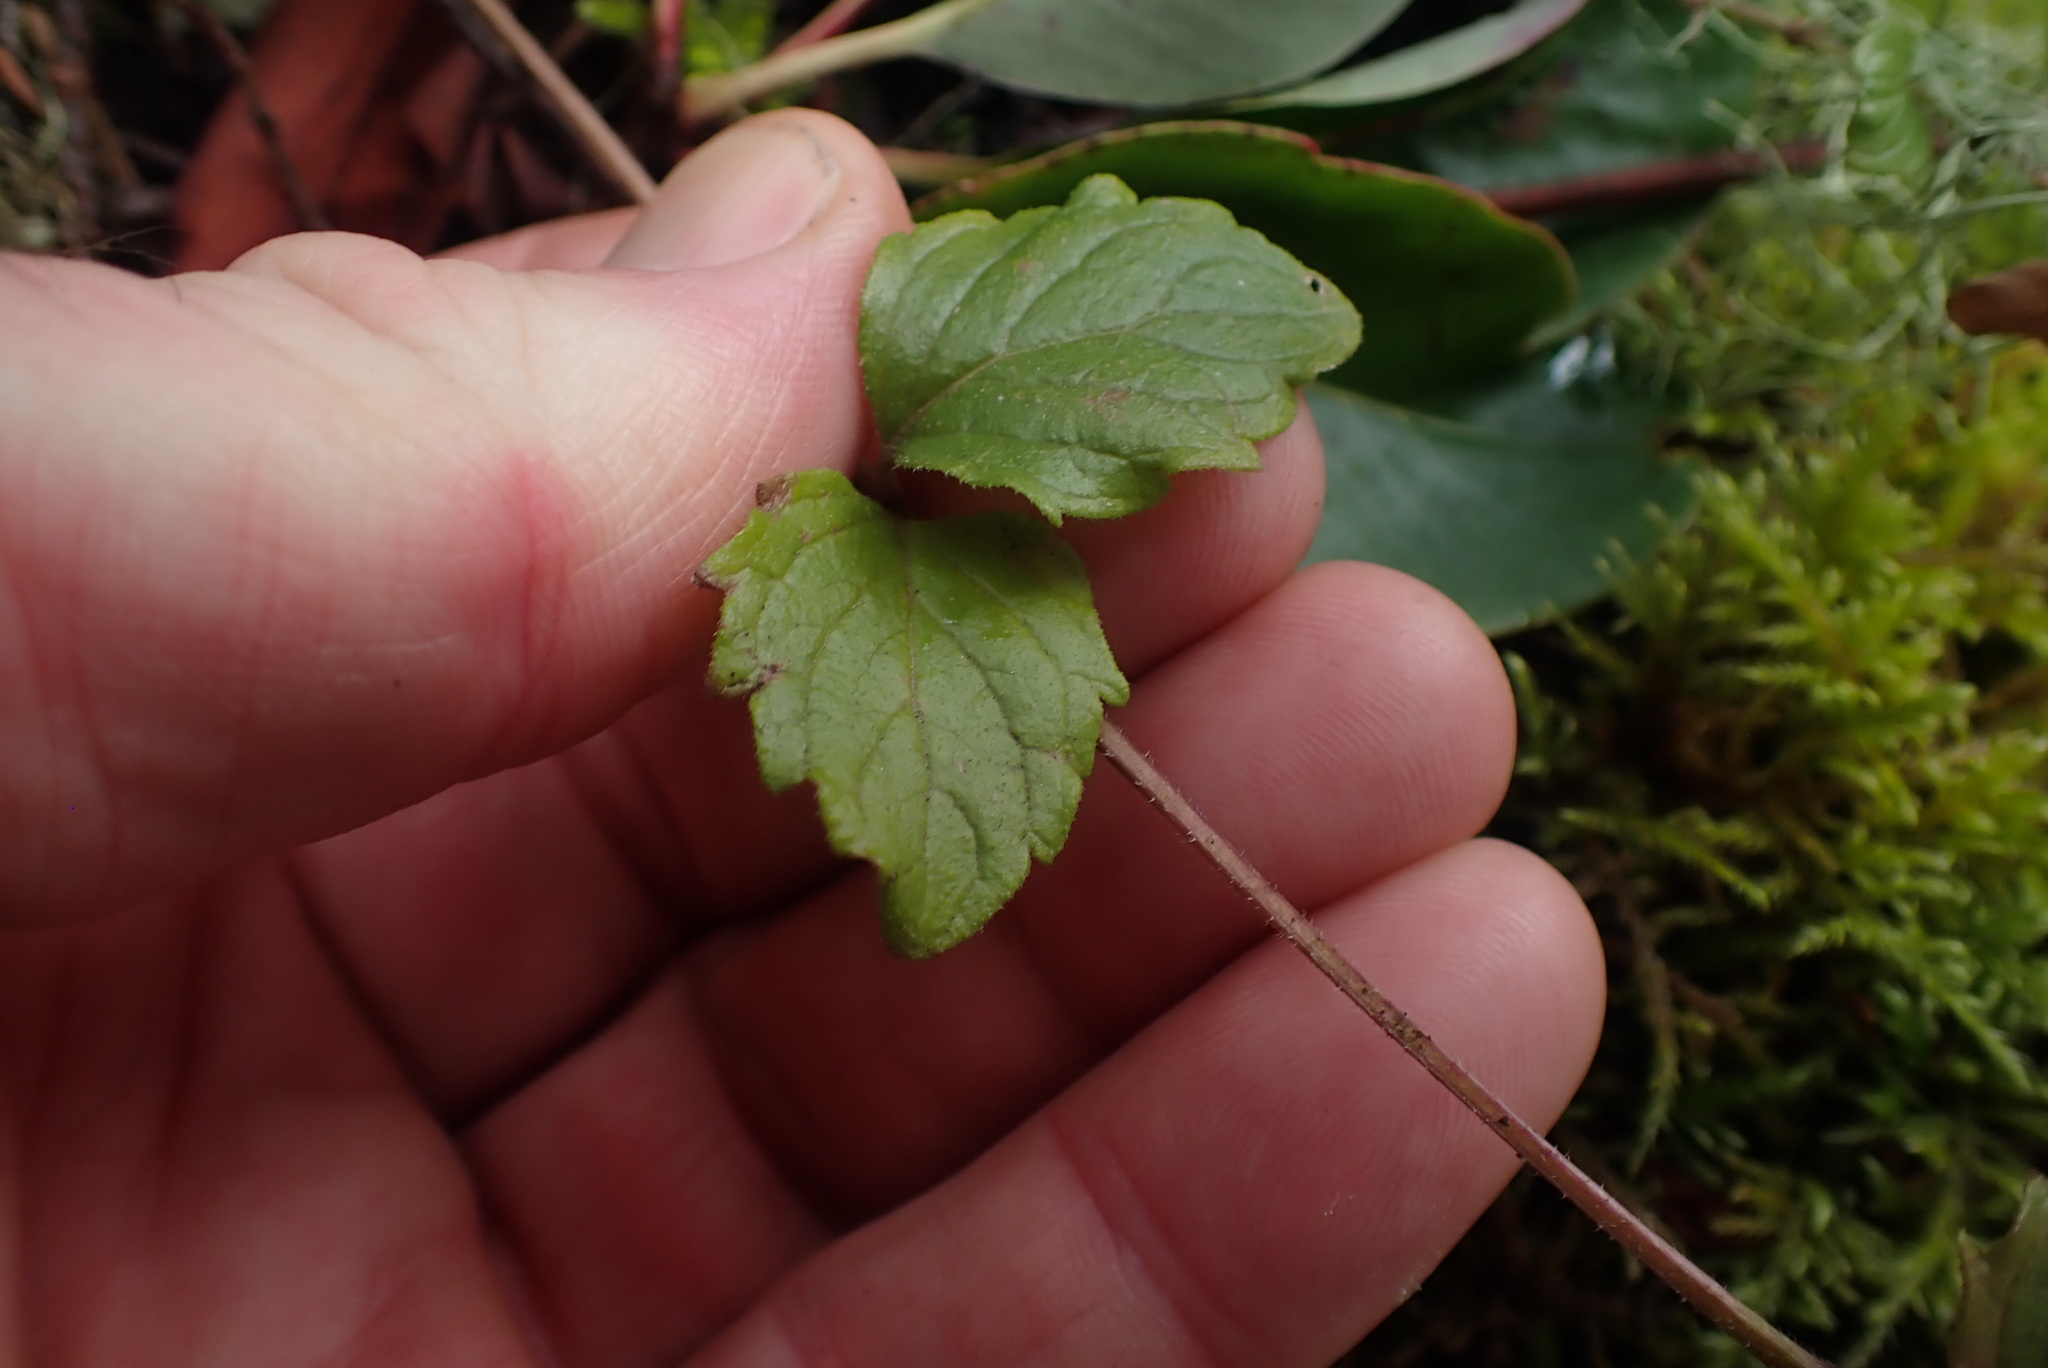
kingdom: Plantae
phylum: Tracheophyta
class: Magnoliopsida
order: Lamiales
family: Lamiaceae
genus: Micromeria
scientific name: Micromeria douglasii
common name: Yerba buena
